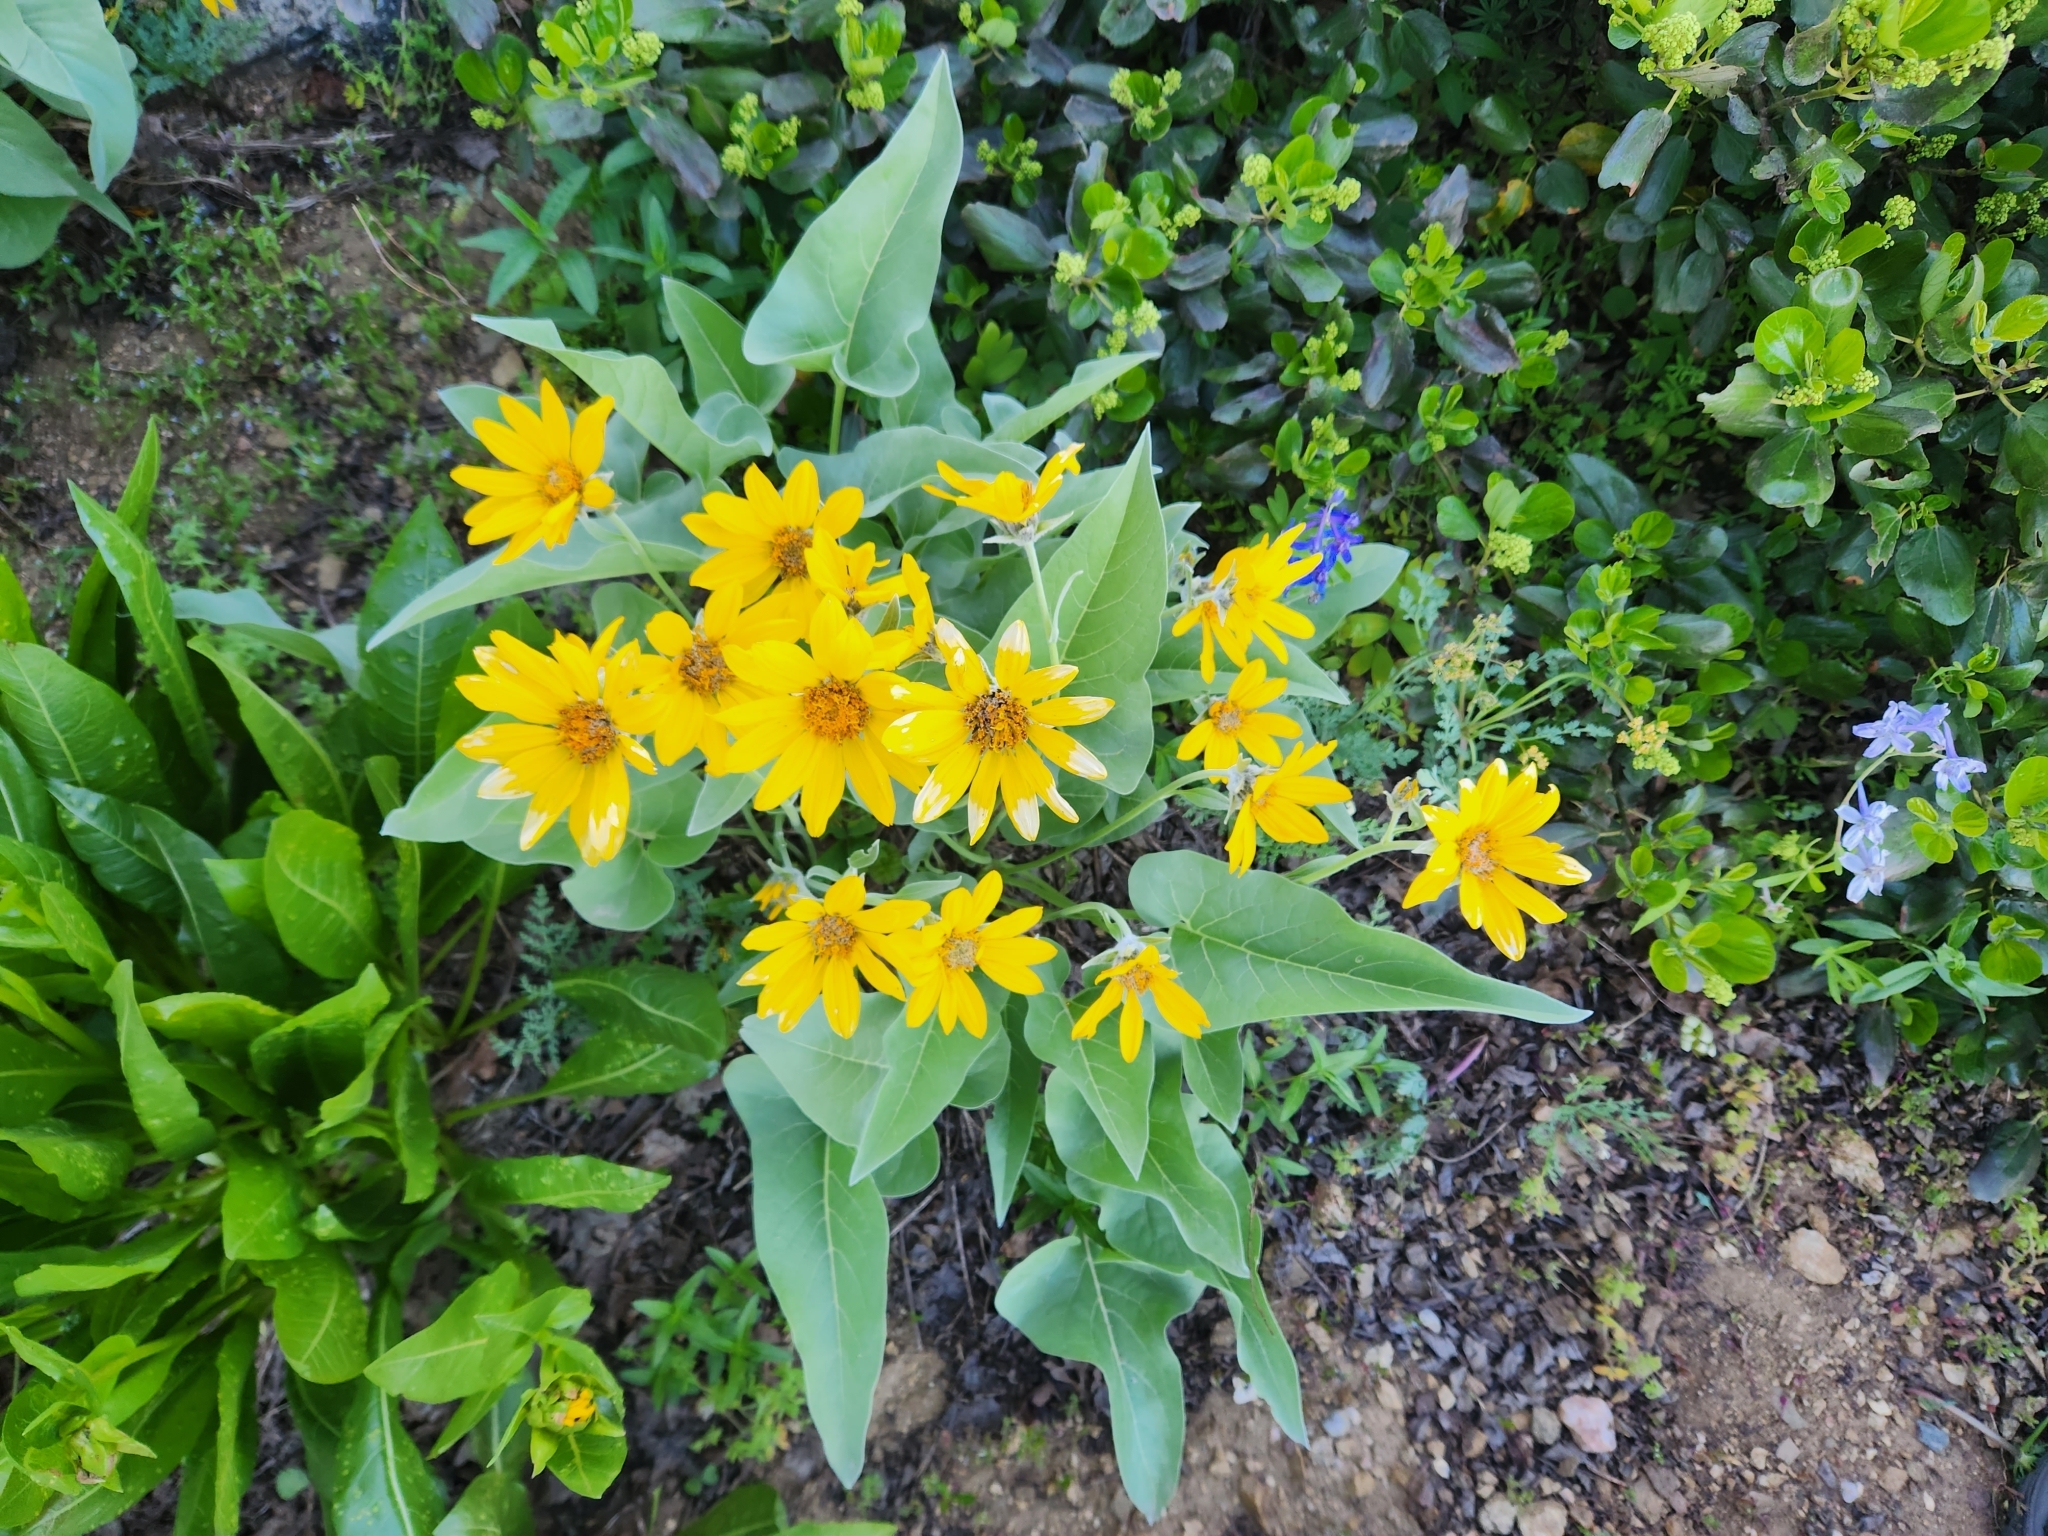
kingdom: Plantae
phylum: Tracheophyta
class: Magnoliopsida
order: Asterales
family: Asteraceae
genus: Wyethia
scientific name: Wyethia sagittata
